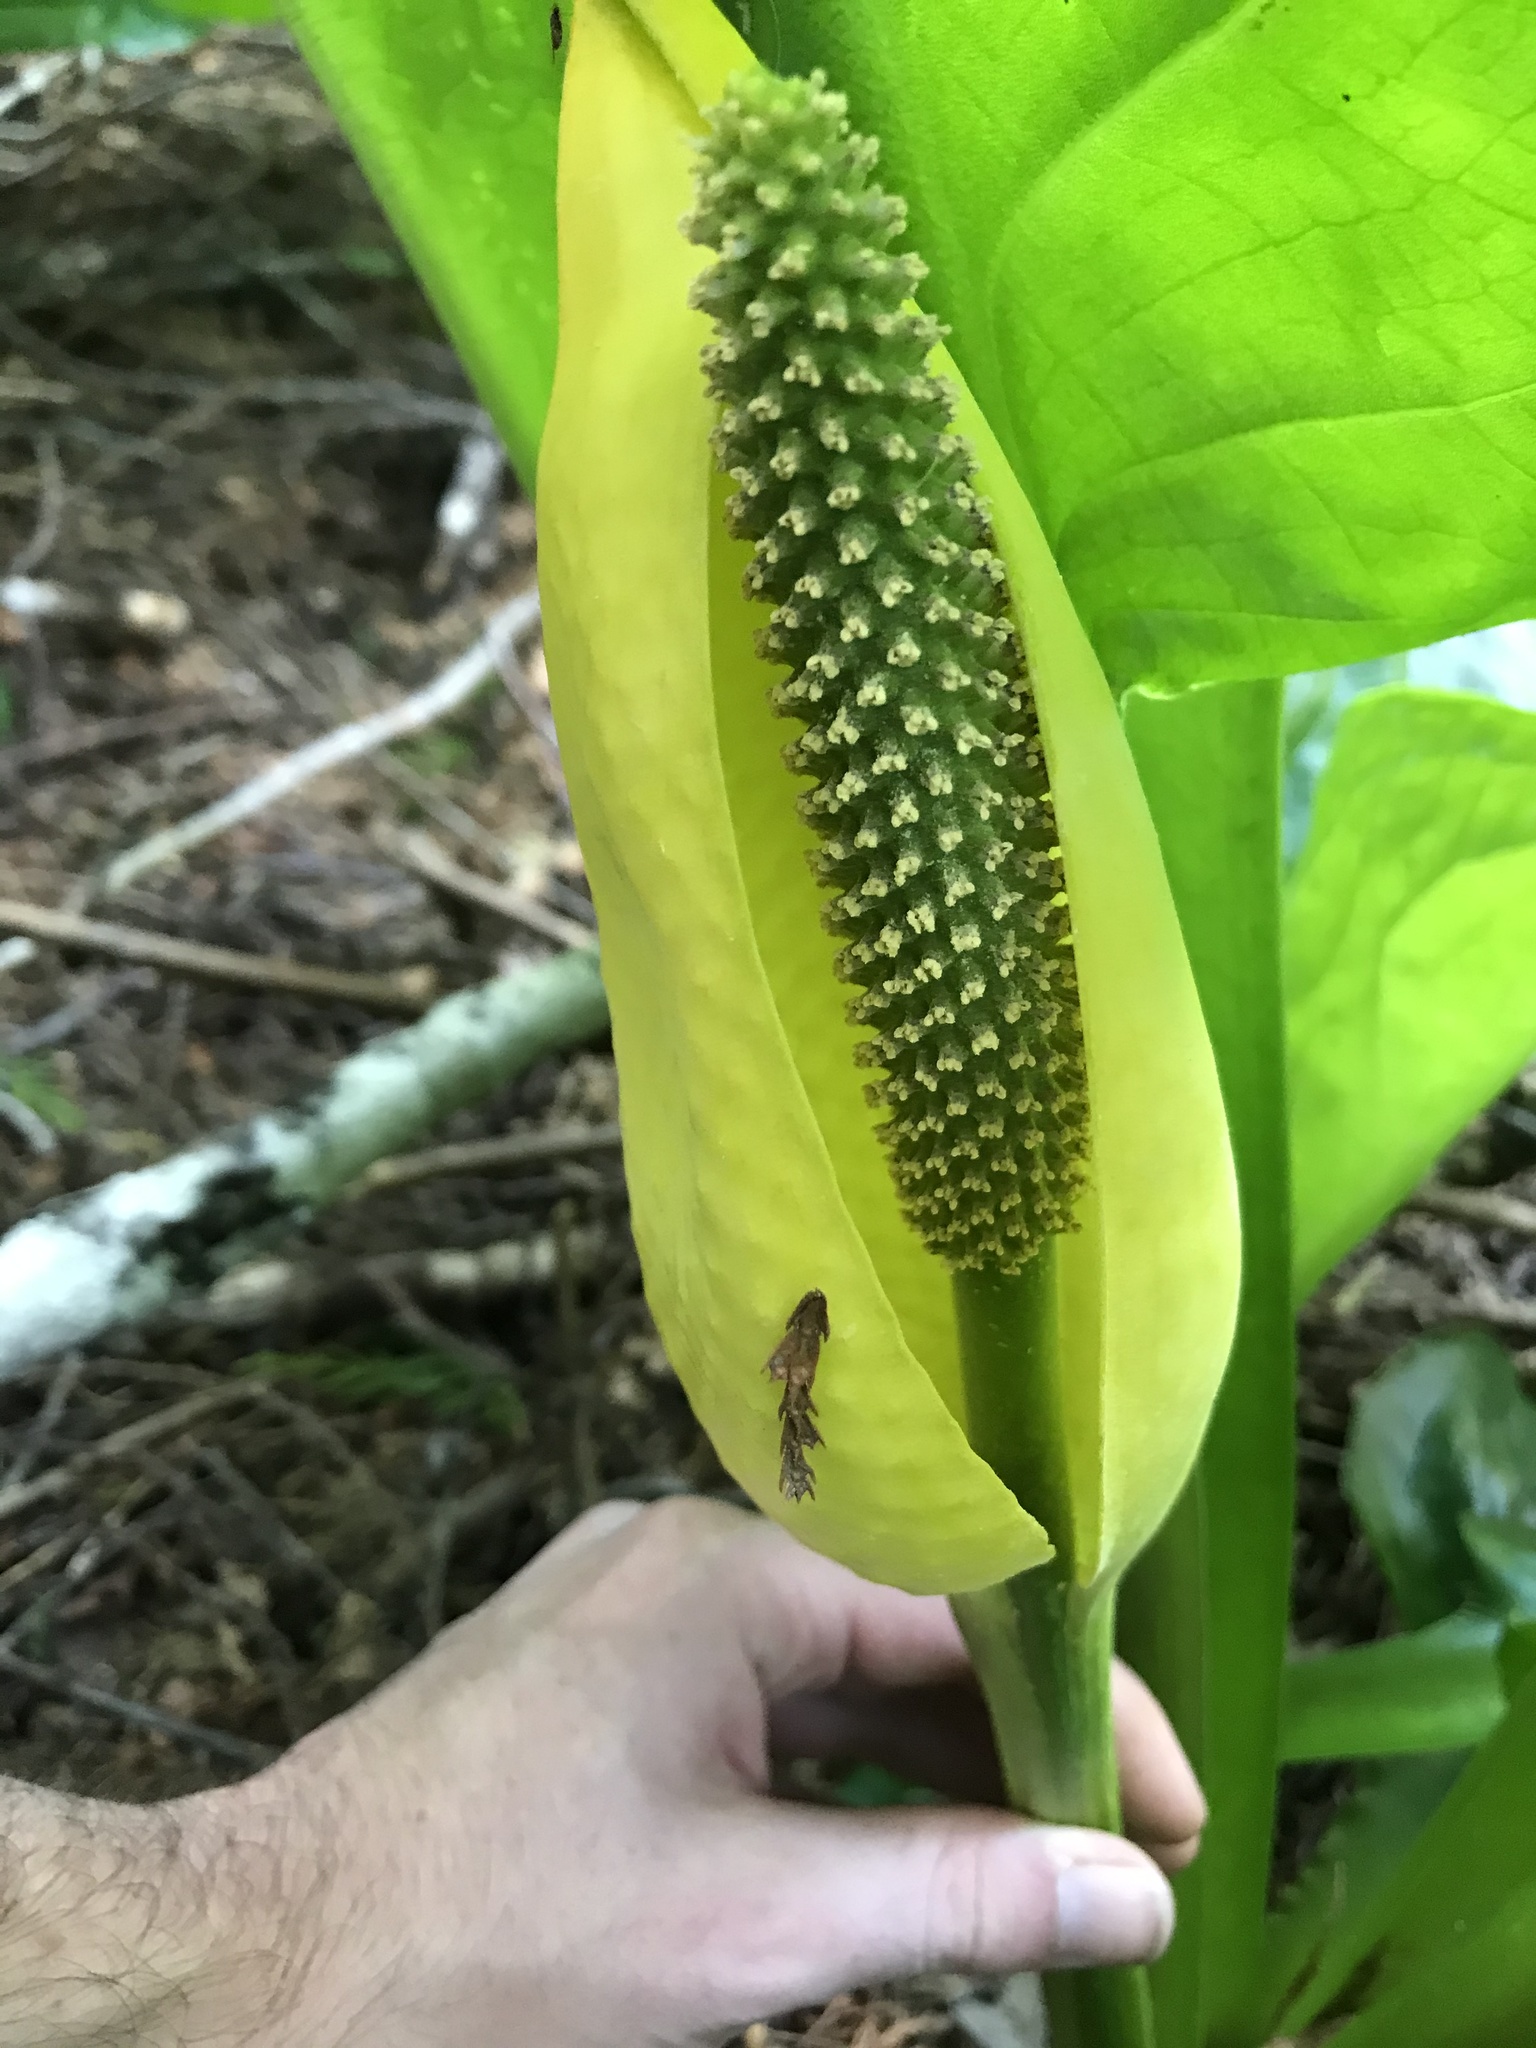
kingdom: Plantae
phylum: Tracheophyta
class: Liliopsida
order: Alismatales
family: Araceae
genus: Lysichiton
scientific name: Lysichiton americanus
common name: American skunk cabbage
